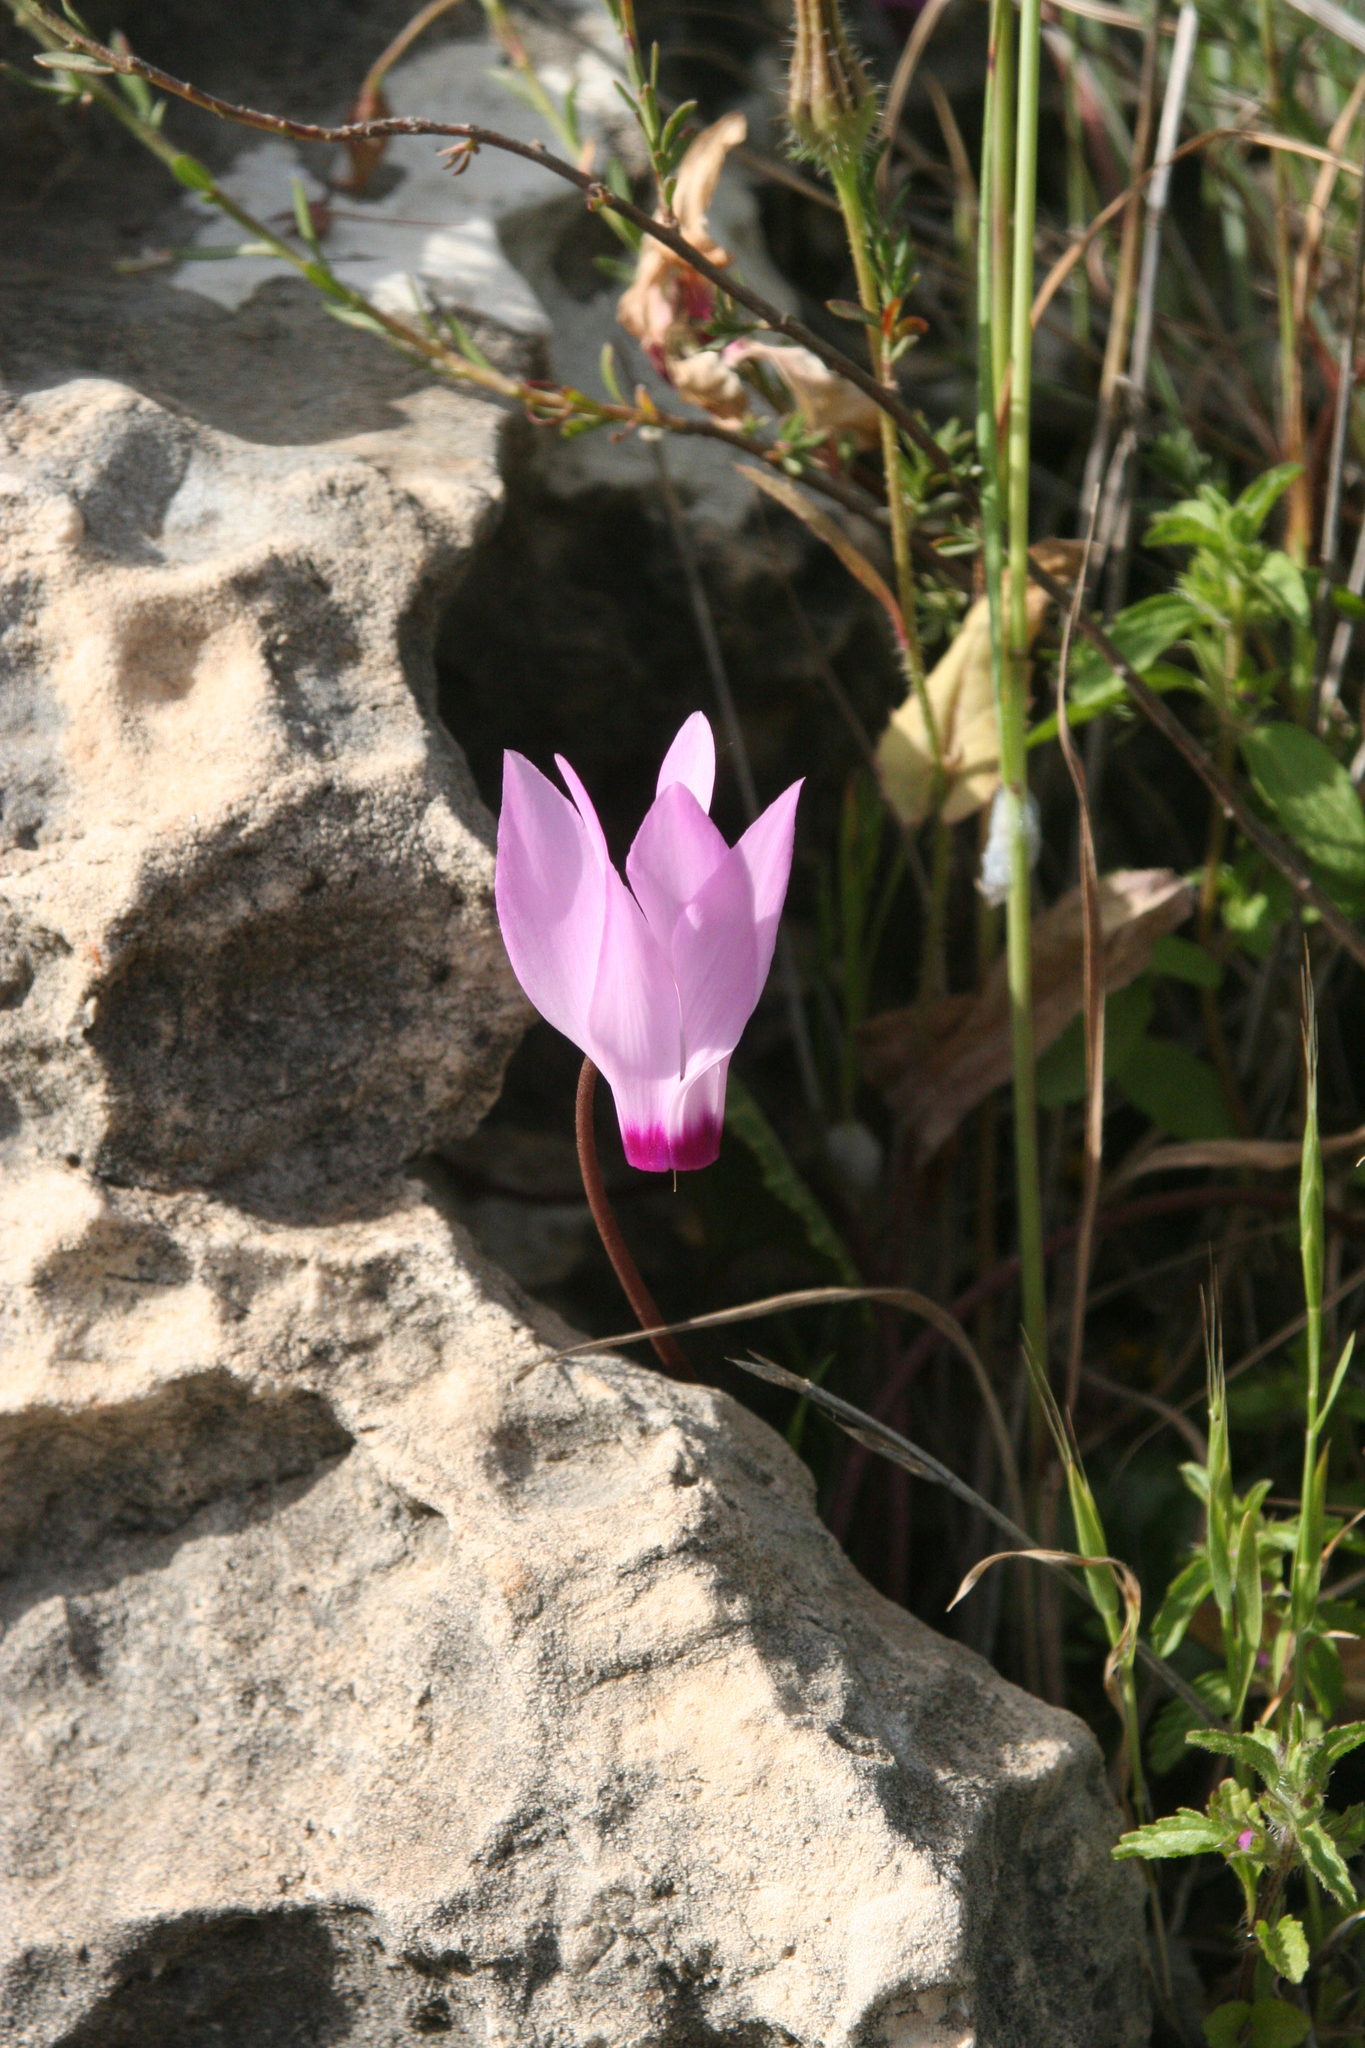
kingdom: Plantae
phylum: Tracheophyta
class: Magnoliopsida
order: Ericales
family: Primulaceae
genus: Cyclamen
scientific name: Cyclamen persicum
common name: Florist's cyclamen
